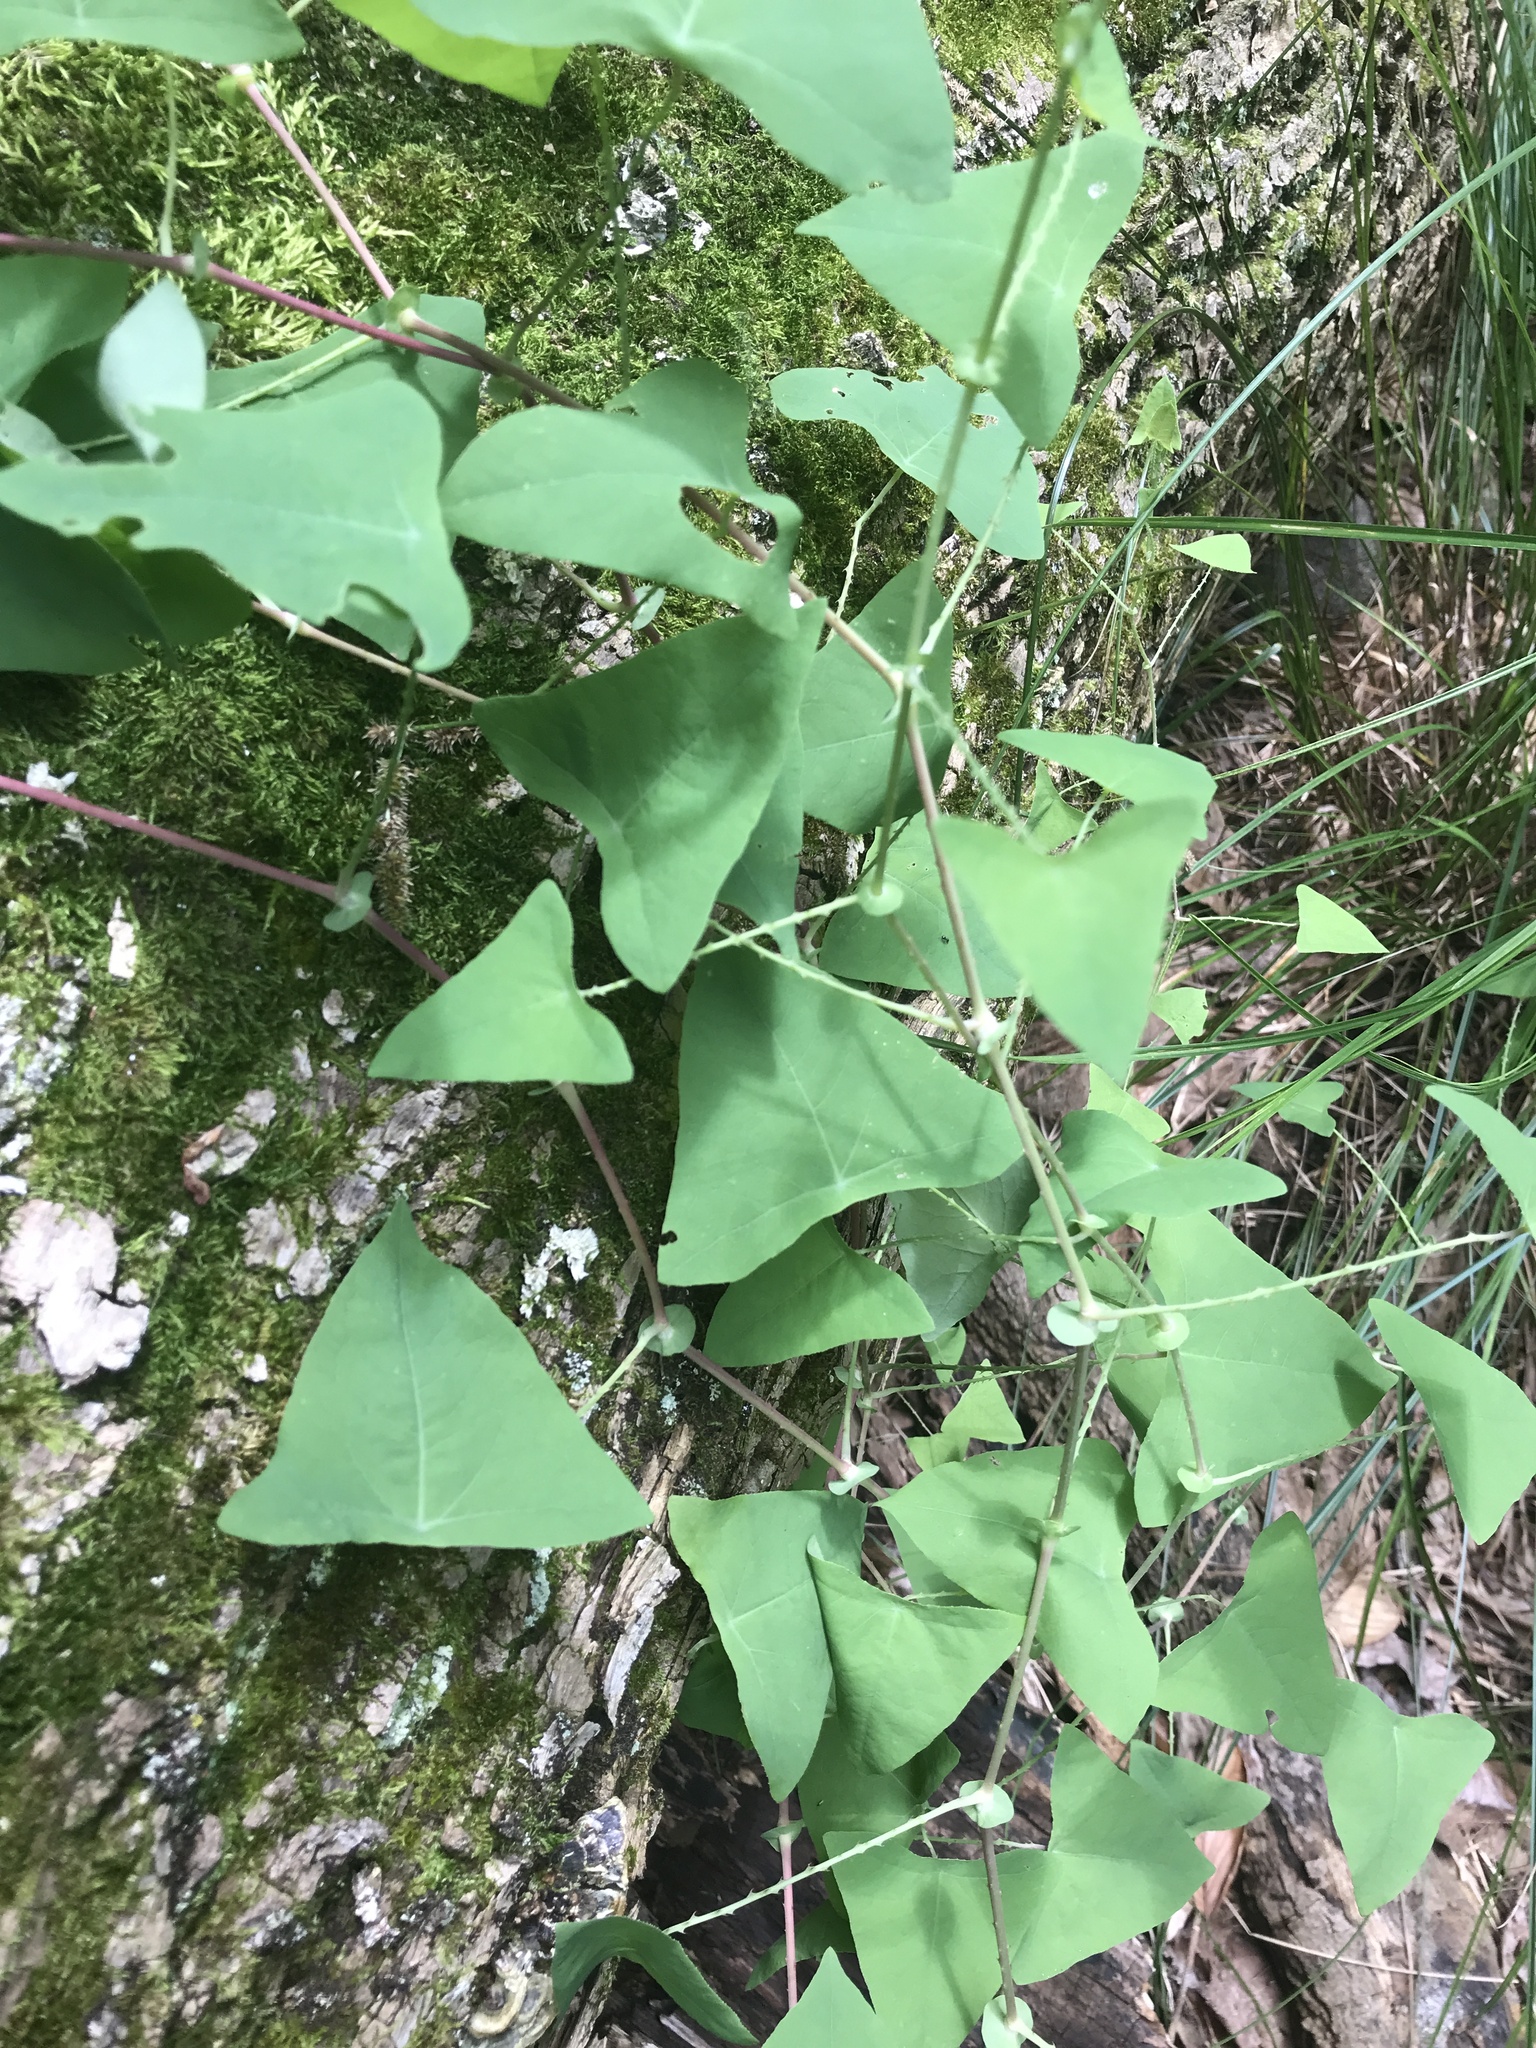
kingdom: Plantae
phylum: Tracheophyta
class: Magnoliopsida
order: Caryophyllales
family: Polygonaceae
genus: Persicaria
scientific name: Persicaria perfoliata
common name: Asiatic tearthumb
